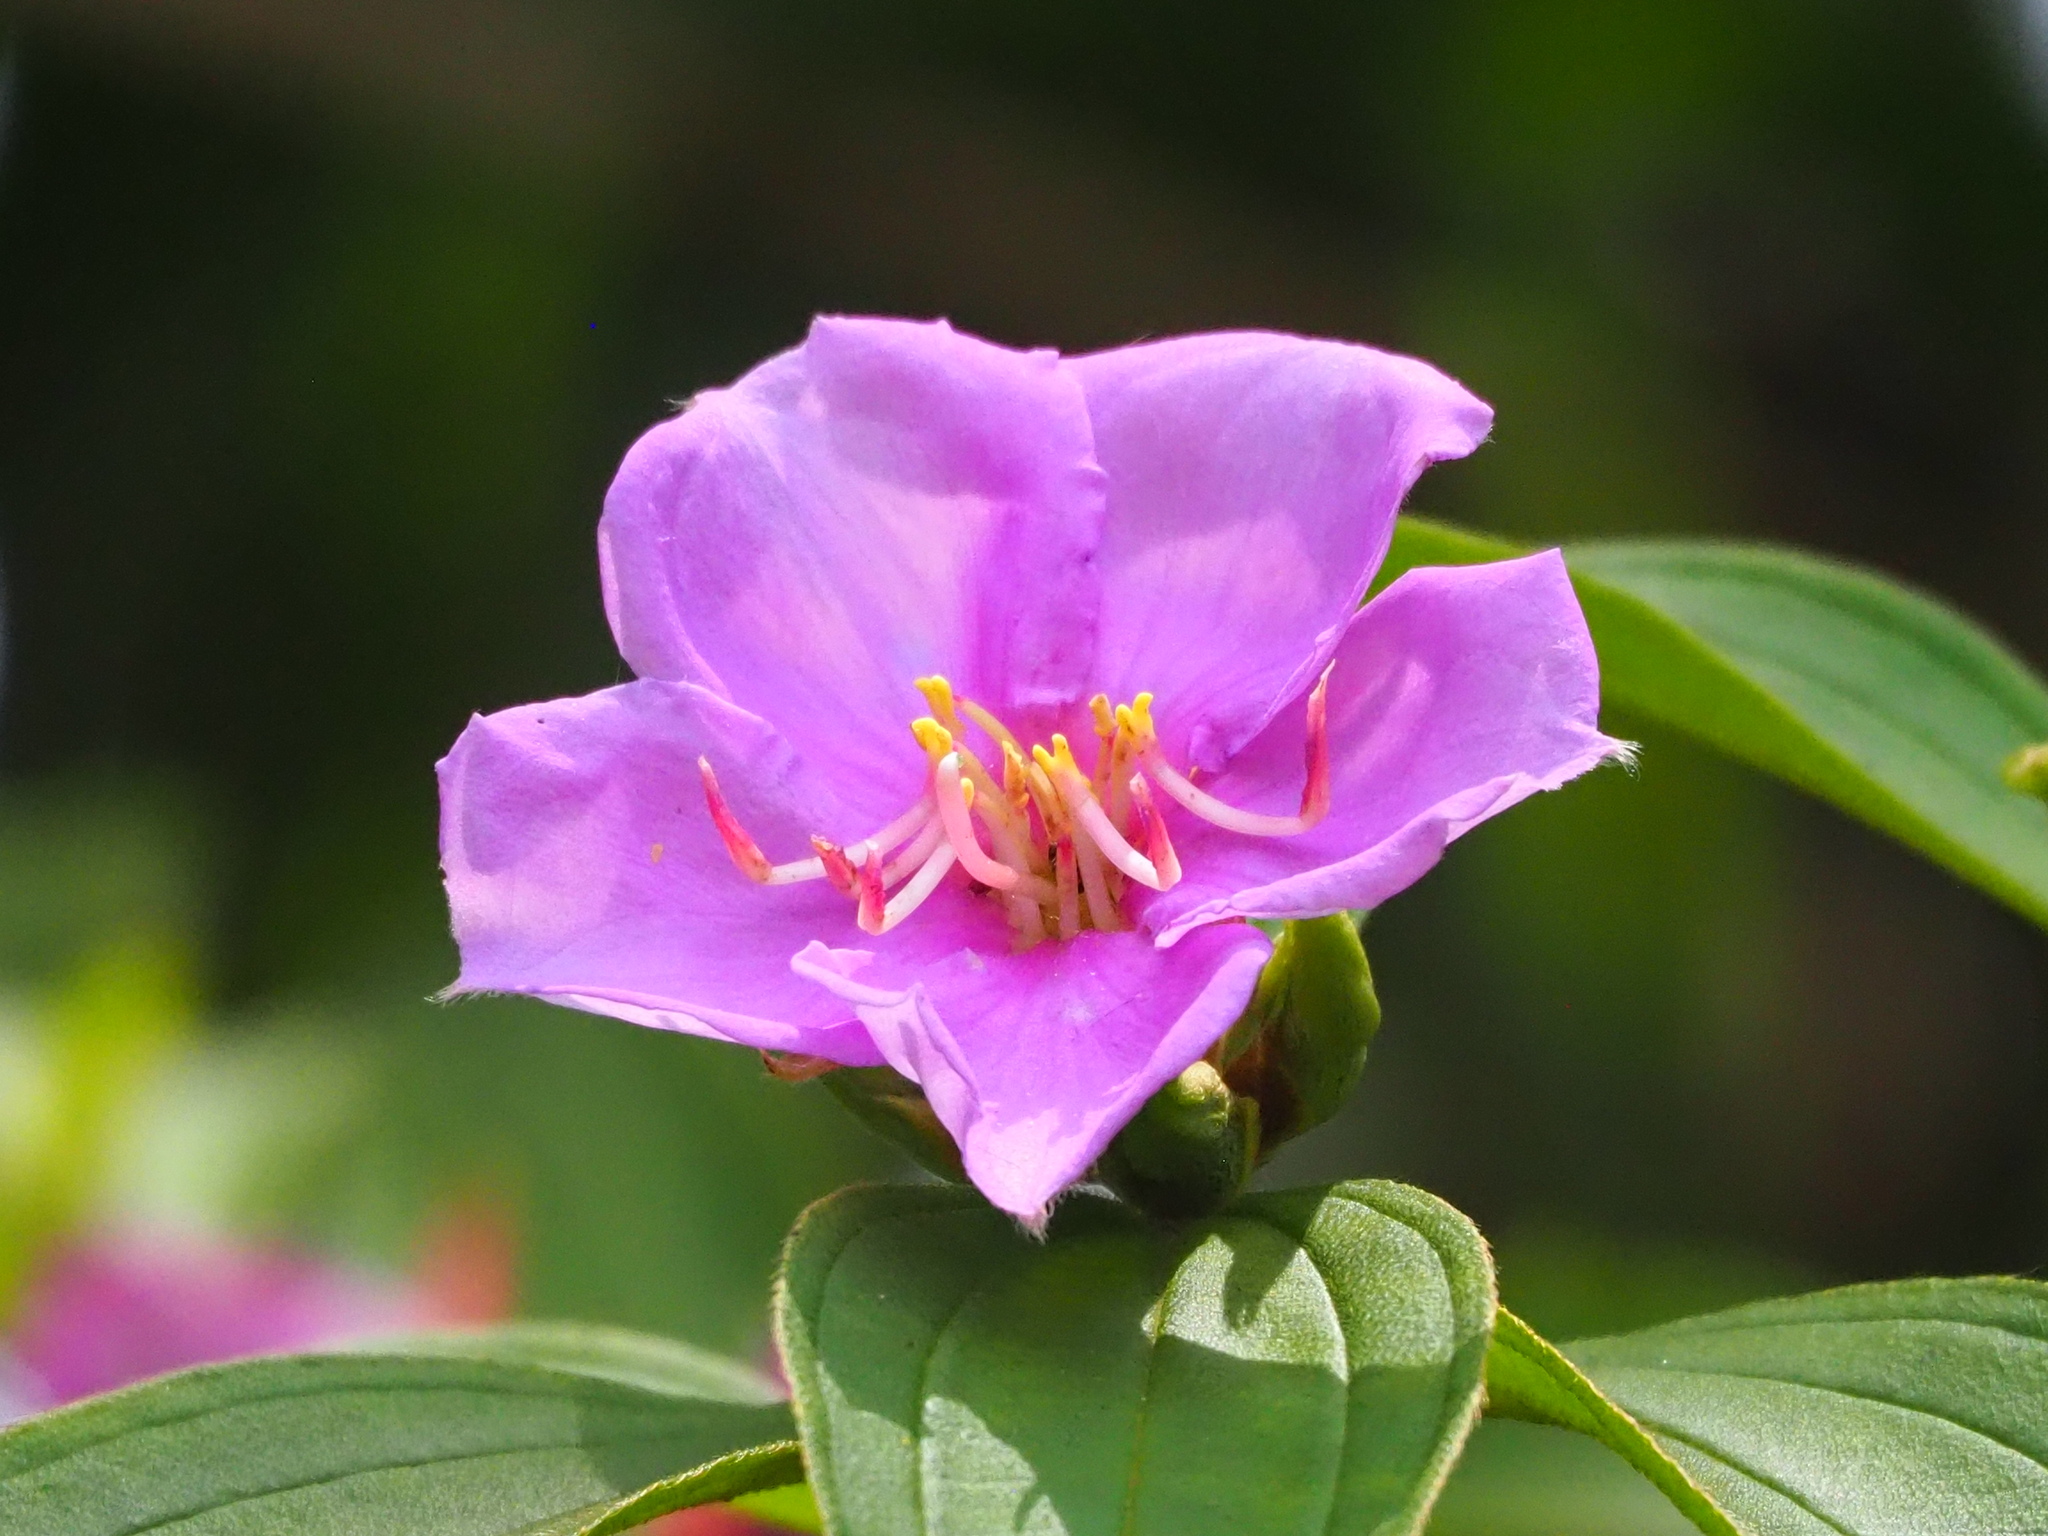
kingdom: Plantae
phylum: Tracheophyta
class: Magnoliopsida
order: Myrtales
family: Melastomataceae
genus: Melastoma
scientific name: Melastoma malabathricum
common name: Indian-rhododendron
